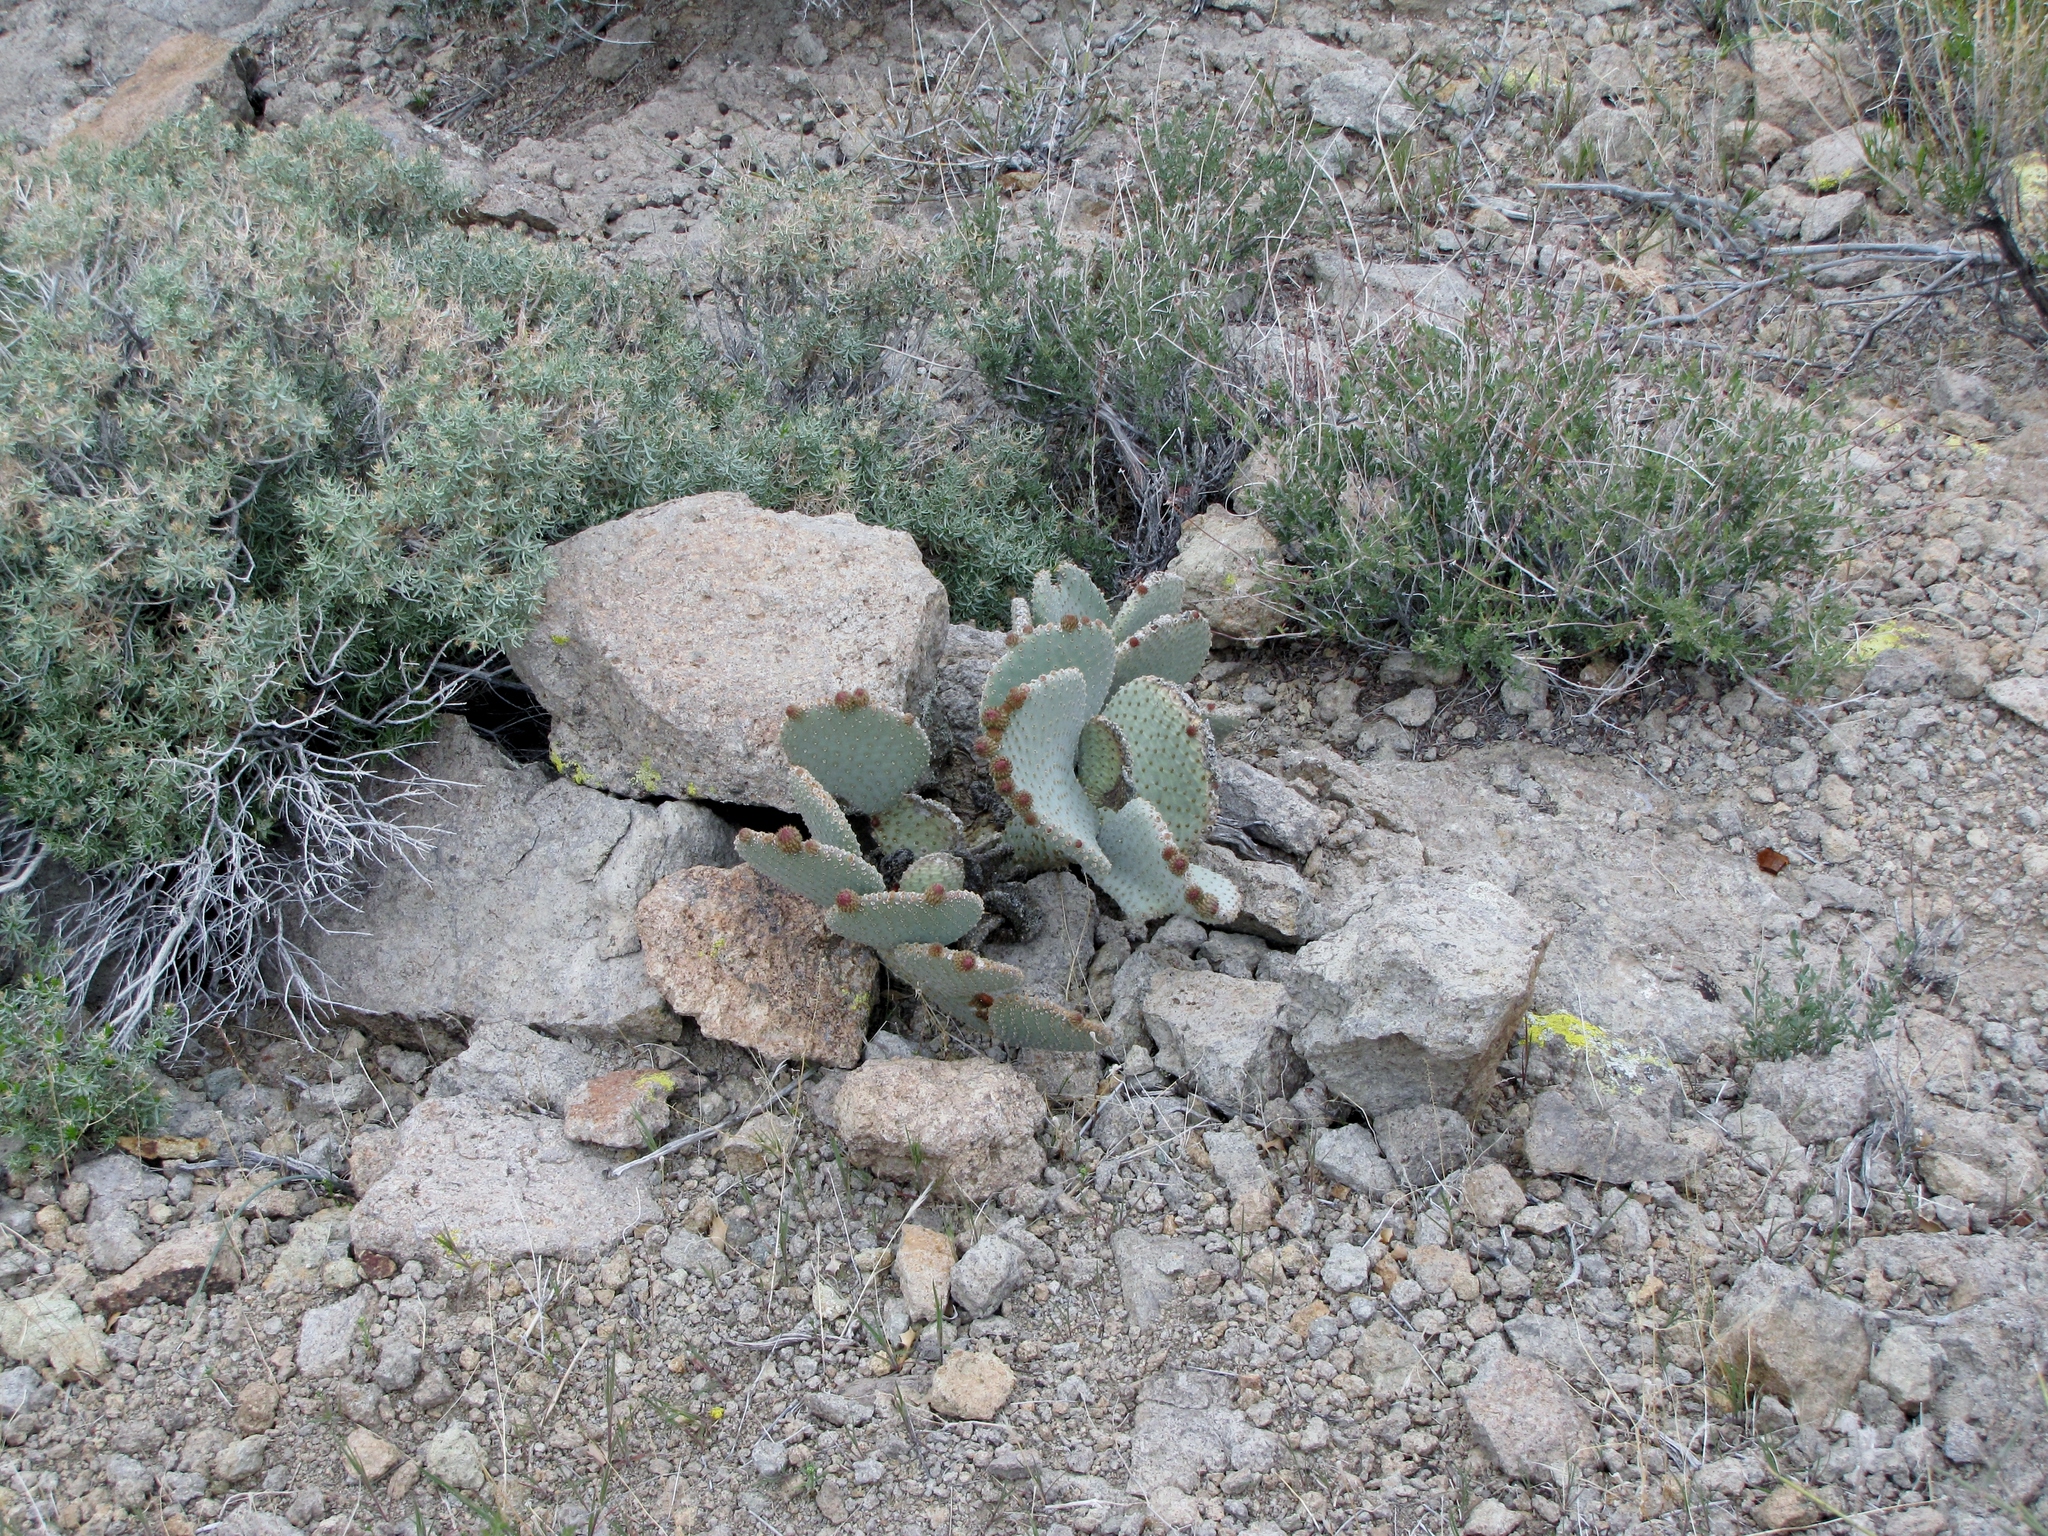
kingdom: Plantae
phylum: Tracheophyta
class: Magnoliopsida
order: Caryophyllales
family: Cactaceae
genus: Opuntia
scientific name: Opuntia basilaris
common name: Beavertail prickly-pear
